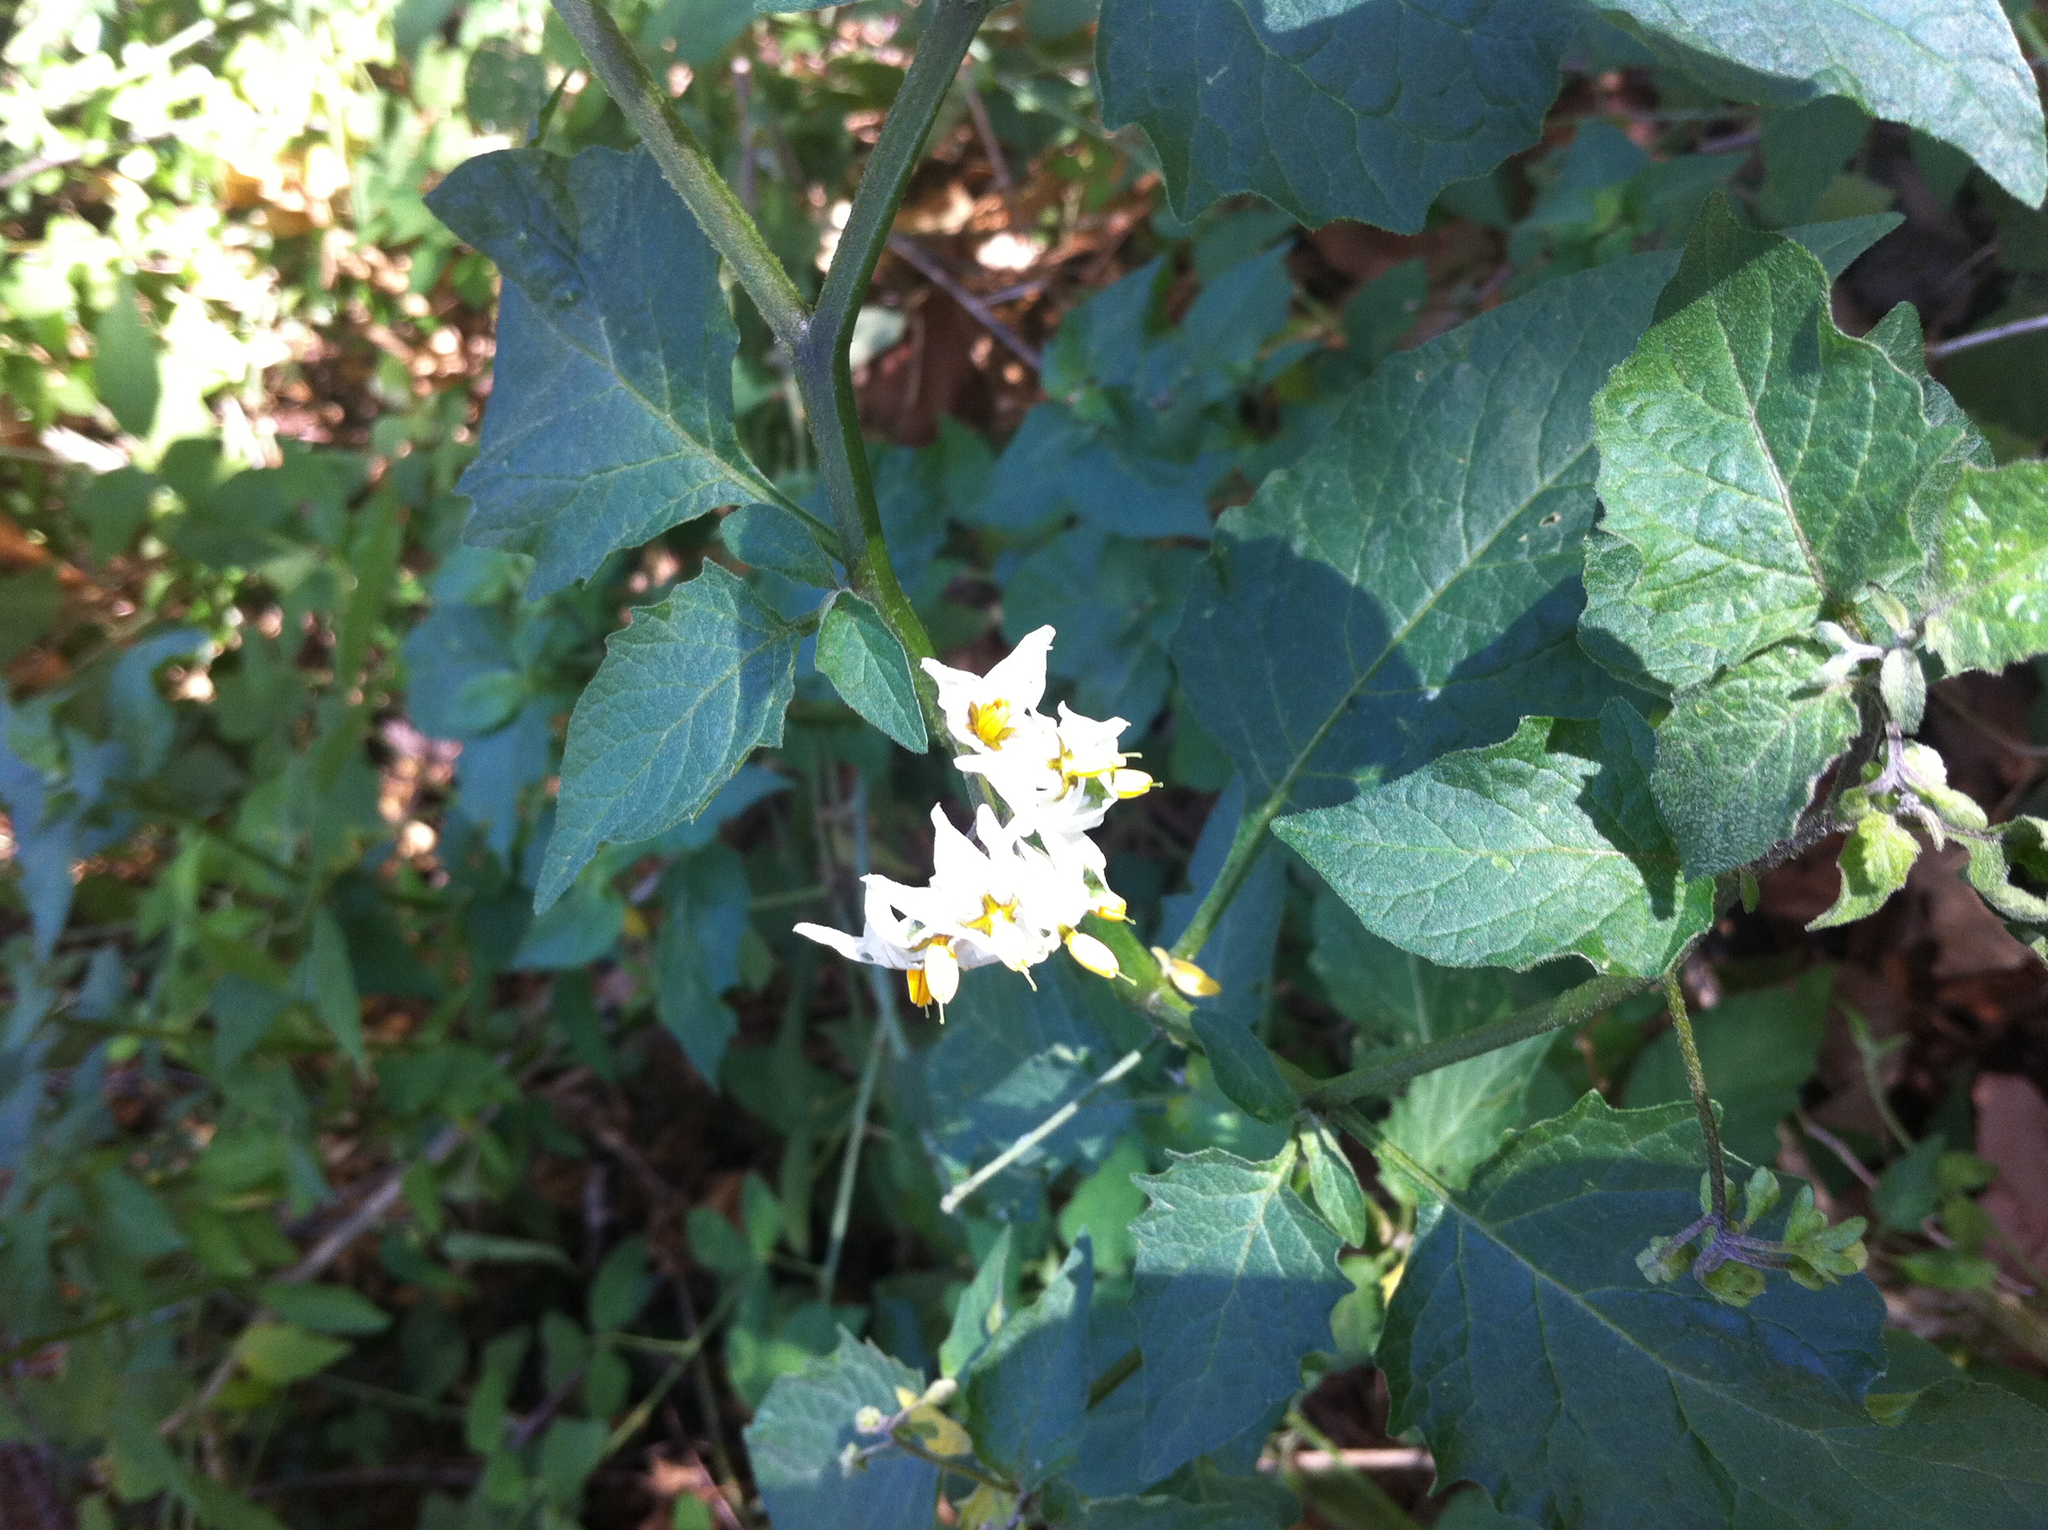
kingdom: Plantae
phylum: Tracheophyta
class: Magnoliopsida
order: Solanales
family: Solanaceae
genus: Solanum
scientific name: Solanum douglasii
